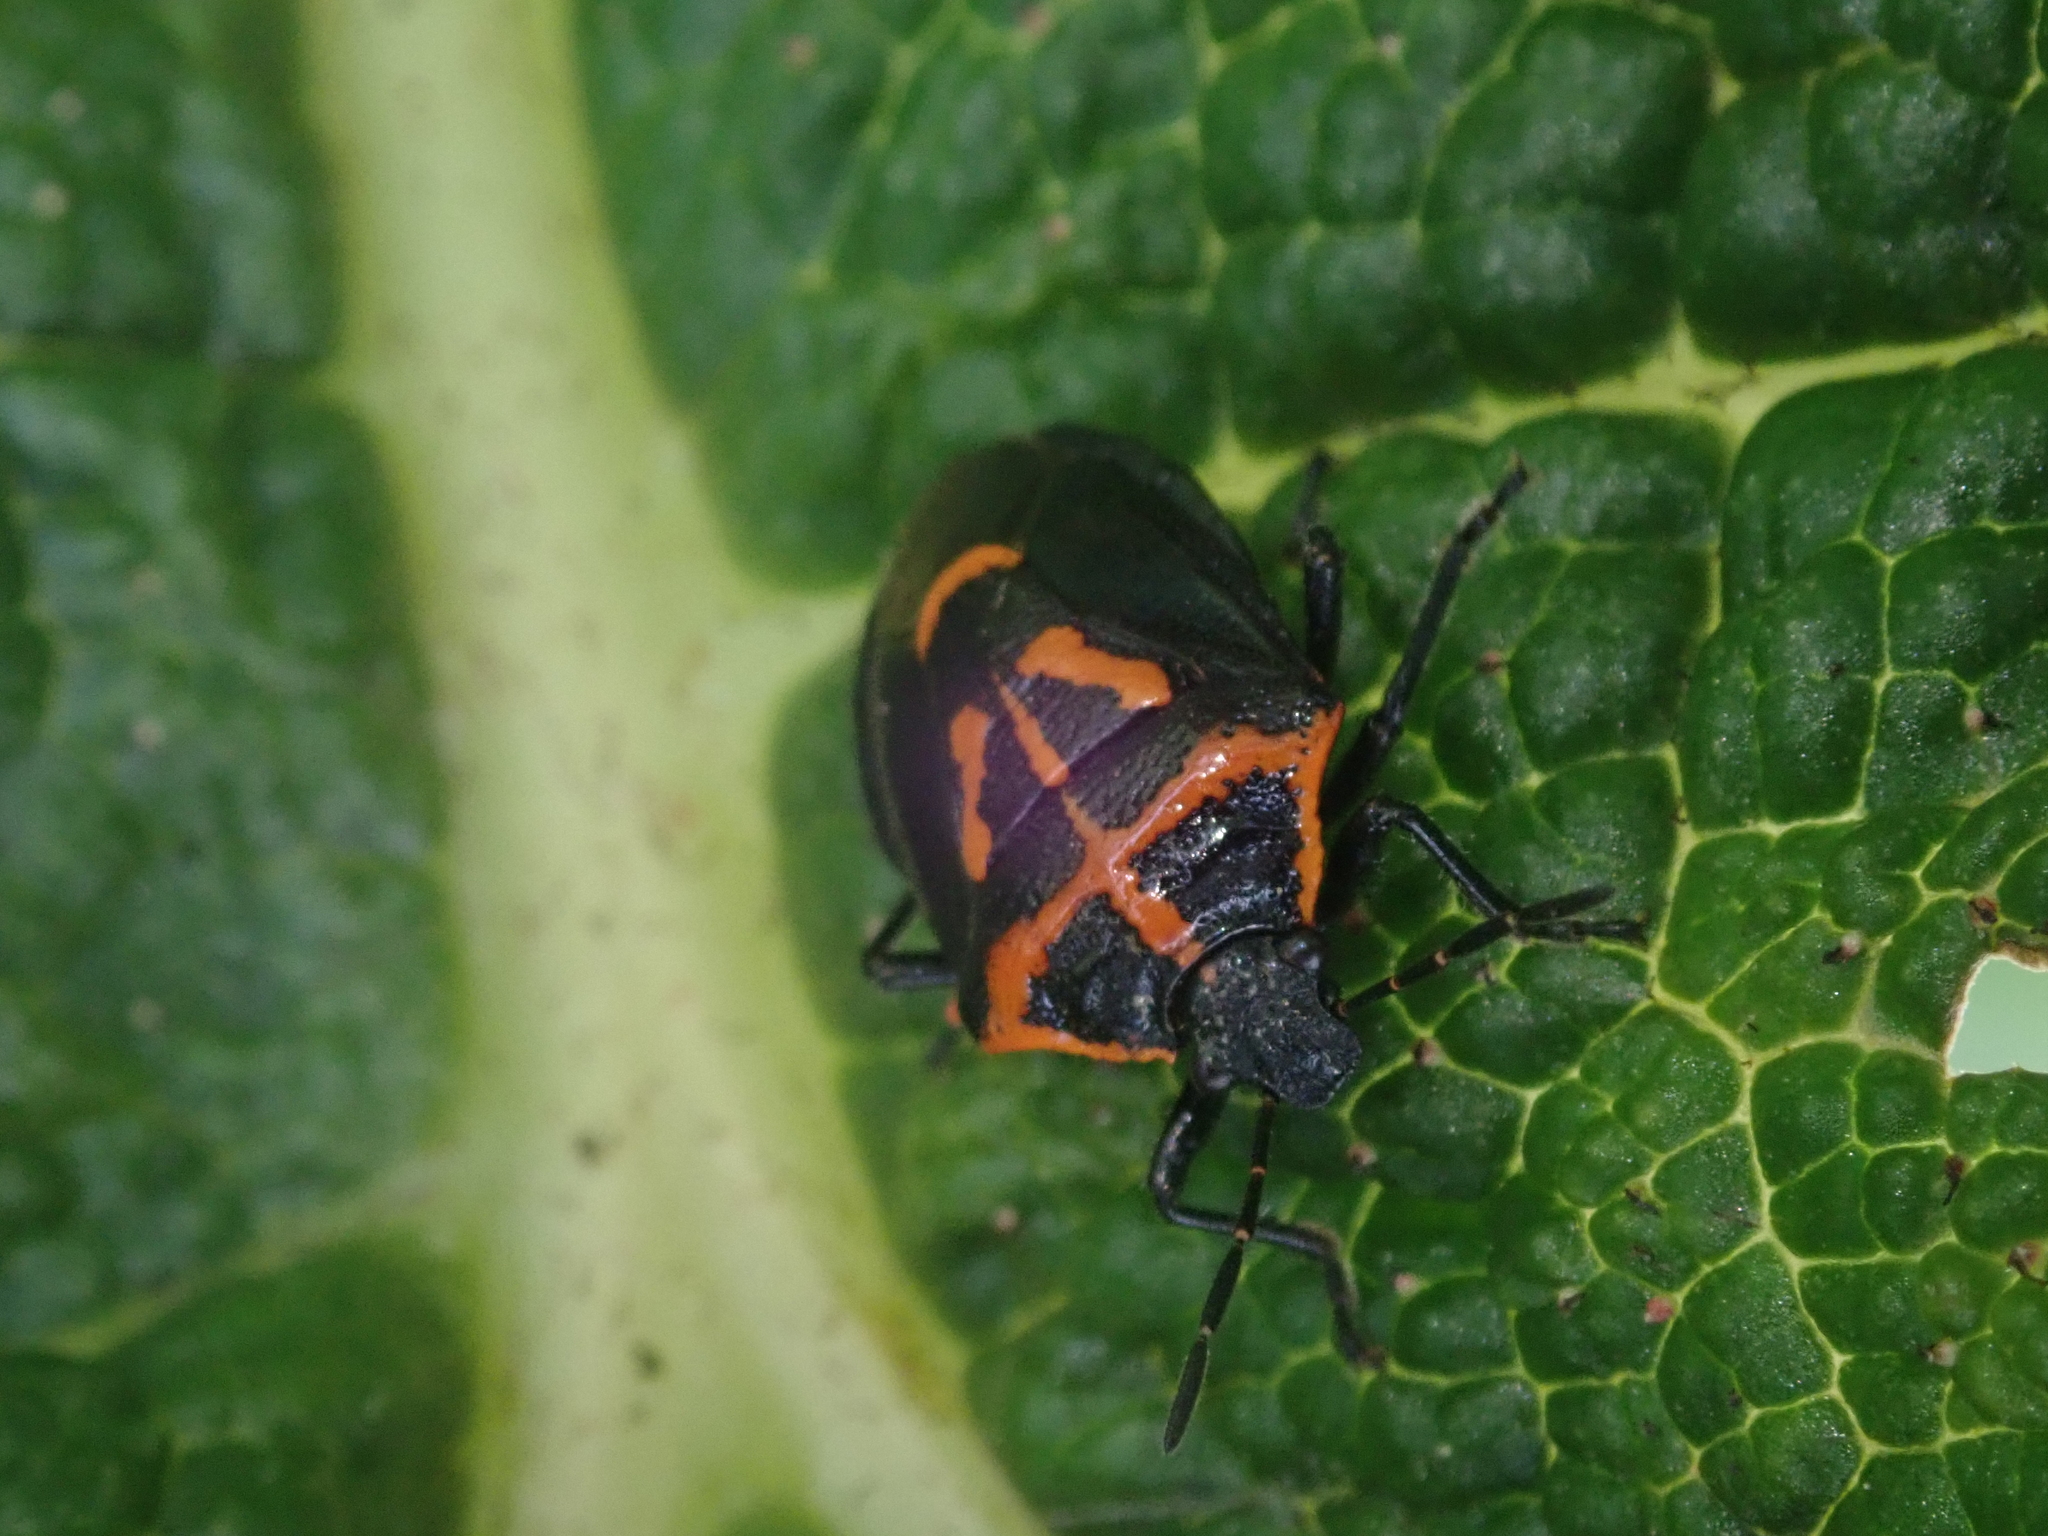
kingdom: Animalia
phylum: Arthropoda
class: Insecta
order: Hemiptera
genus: Comperocoris
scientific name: Comperocoris roehneri
